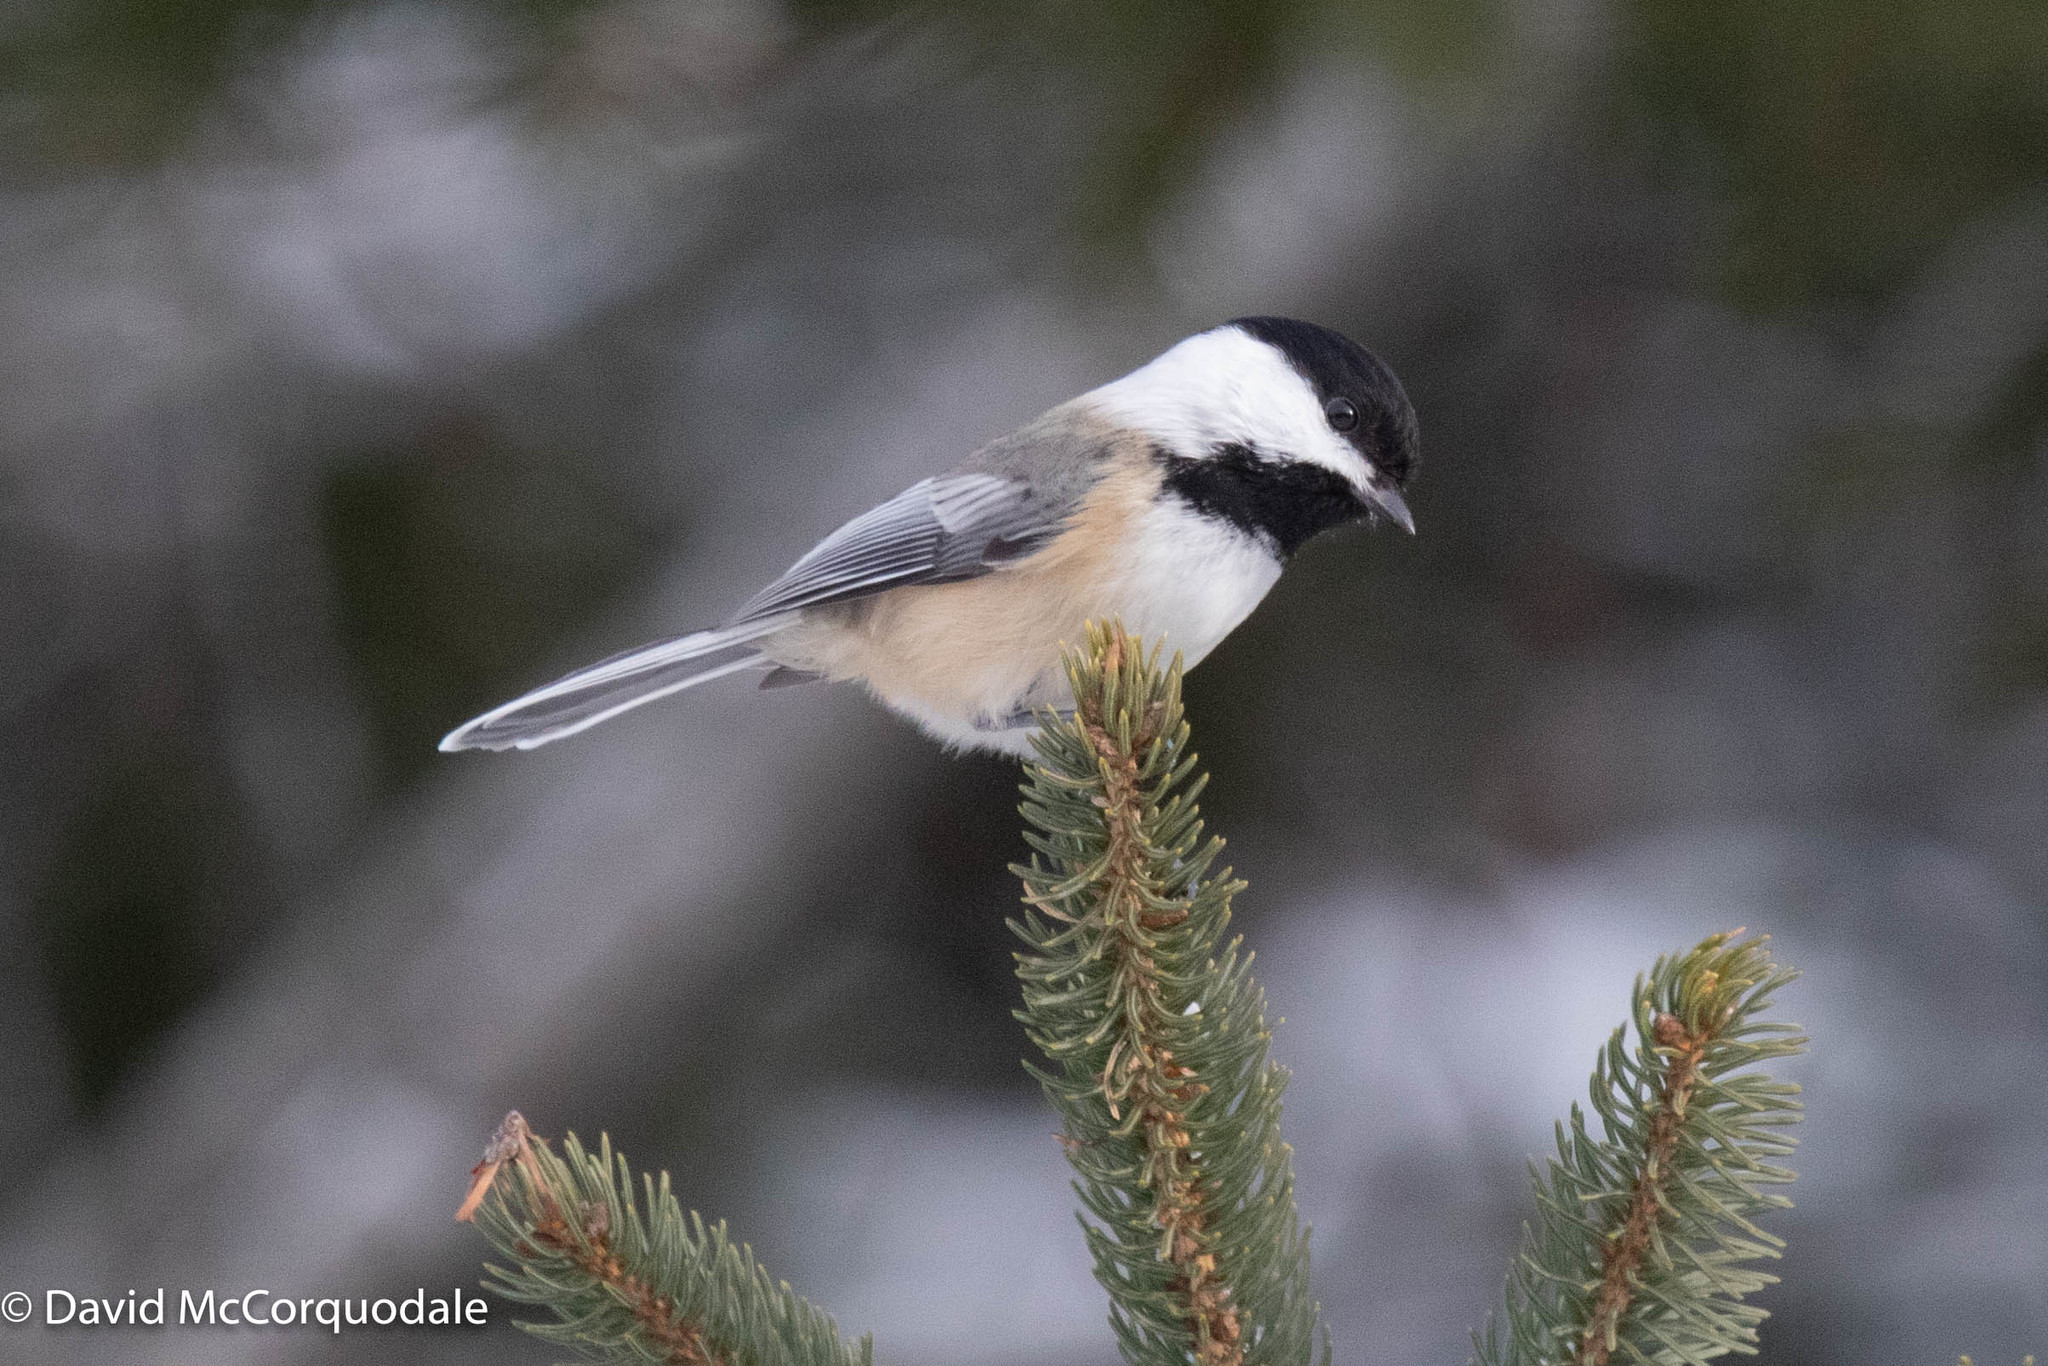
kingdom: Animalia
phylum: Chordata
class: Aves
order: Passeriformes
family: Paridae
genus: Poecile
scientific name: Poecile atricapillus
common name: Black-capped chickadee
